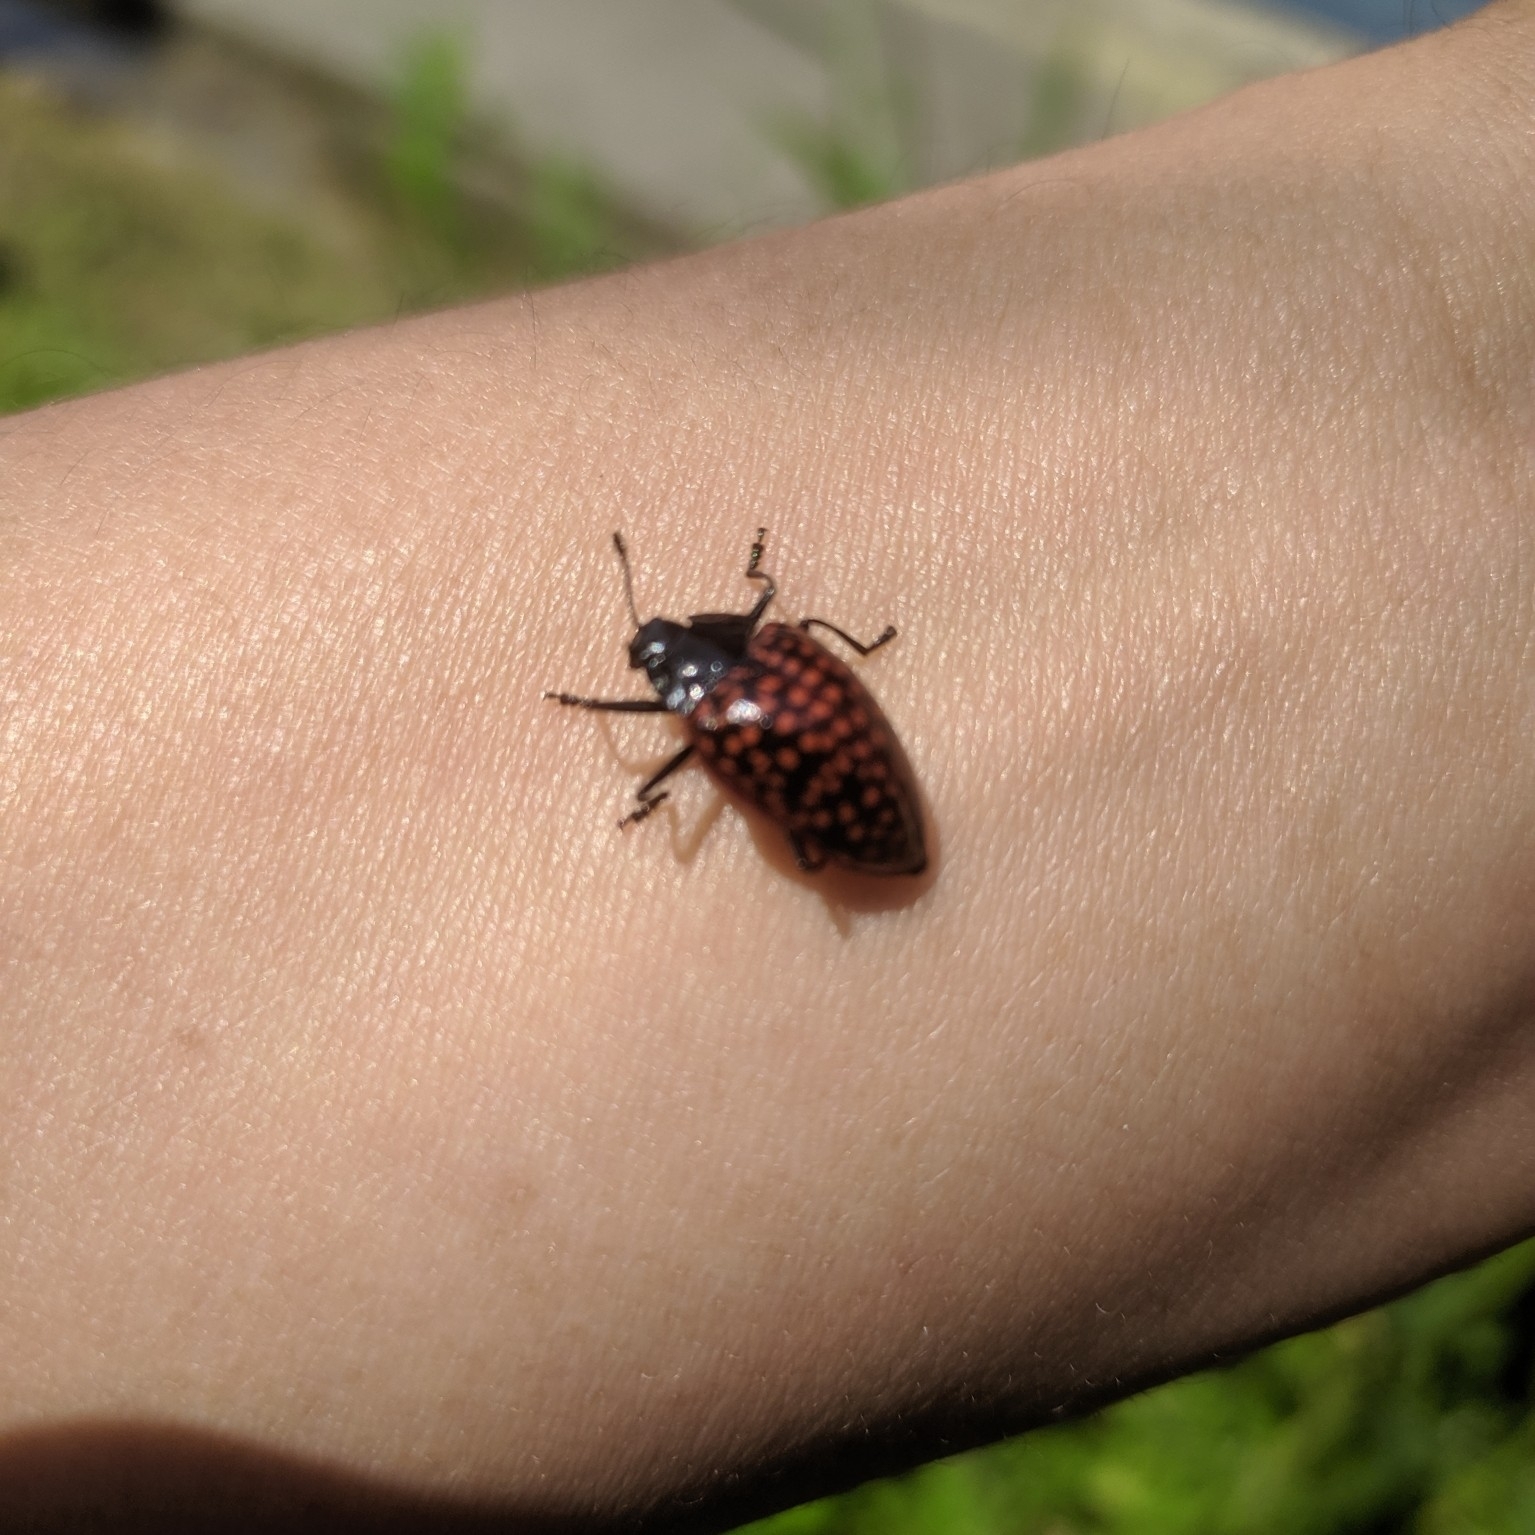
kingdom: Animalia
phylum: Arthropoda
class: Insecta
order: Coleoptera
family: Erotylidae
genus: Erotylina
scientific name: Erotylina jaspidea
